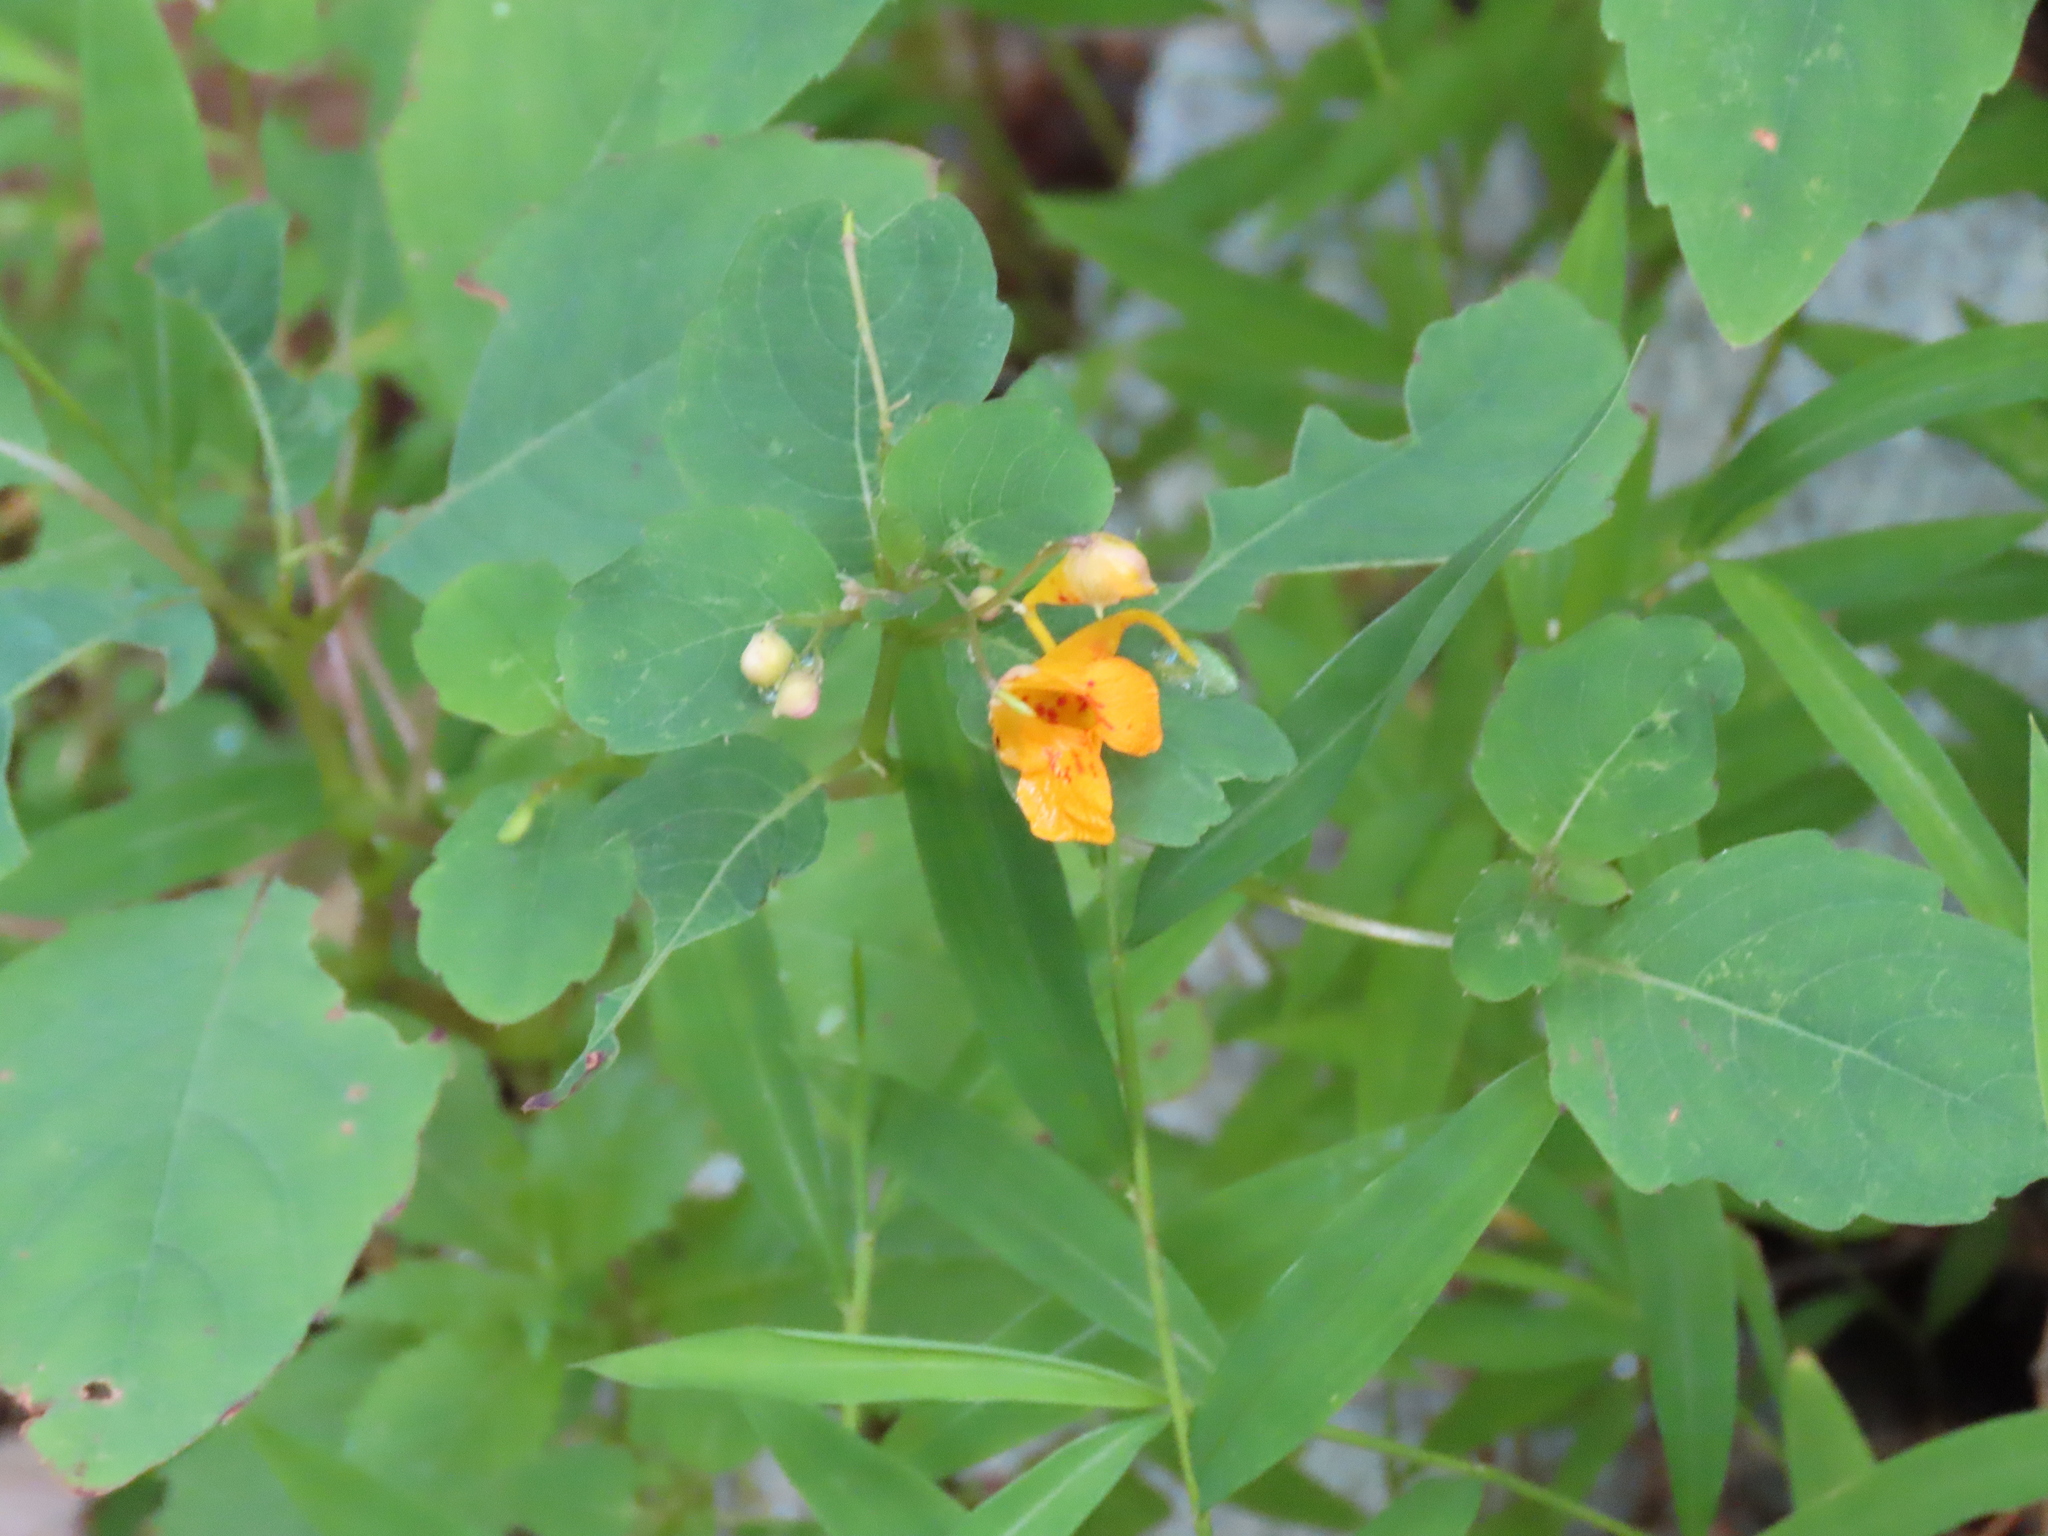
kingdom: Plantae
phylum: Tracheophyta
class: Magnoliopsida
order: Ericales
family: Balsaminaceae
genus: Impatiens
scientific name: Impatiens capensis
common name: Orange balsam
